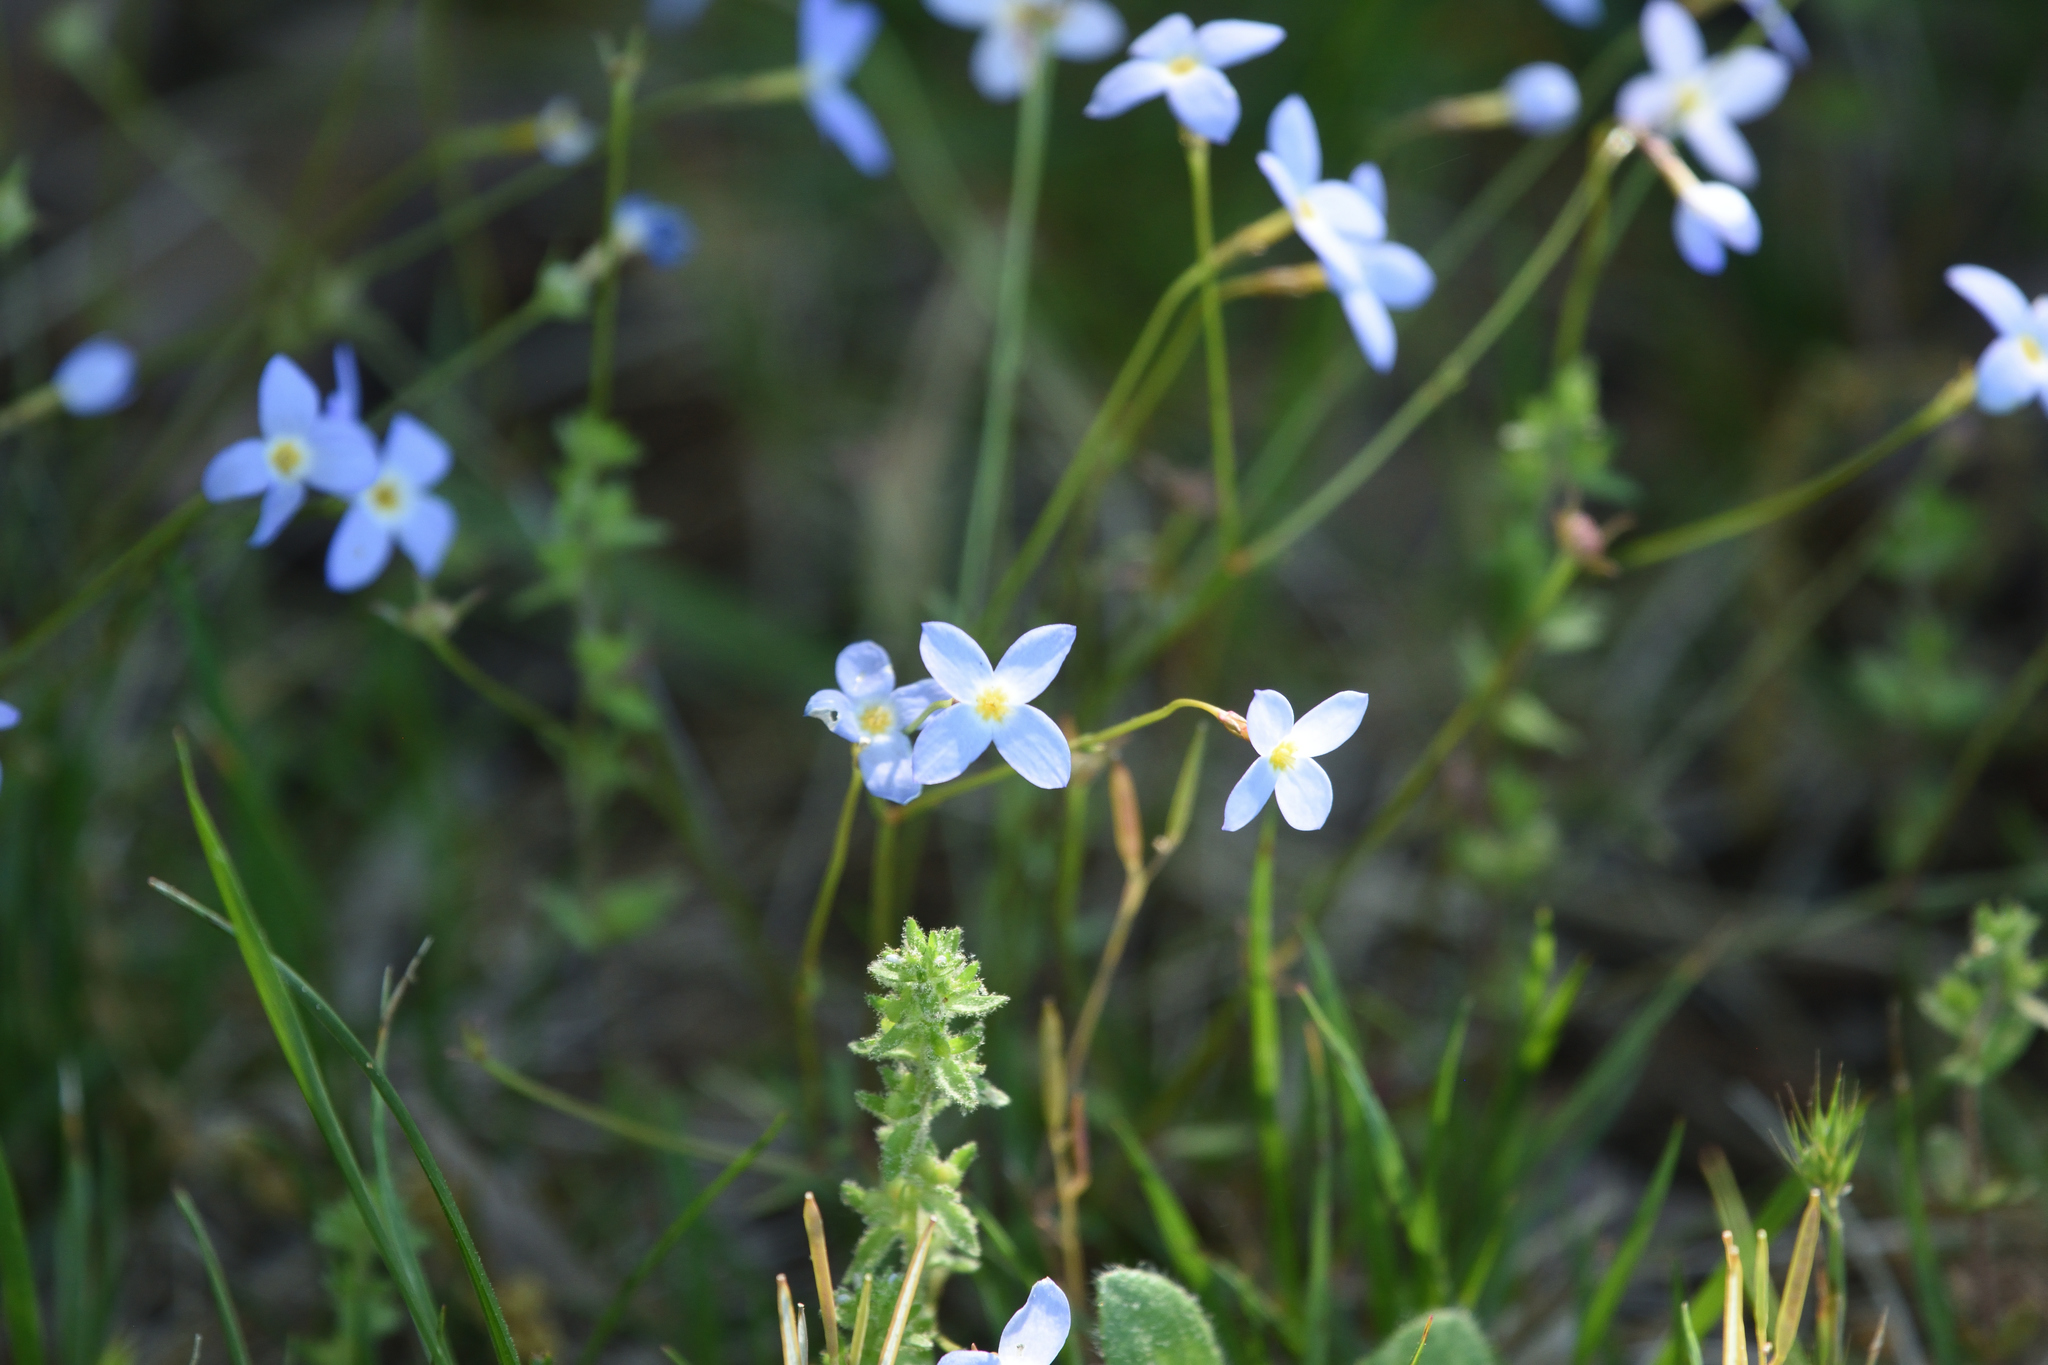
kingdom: Plantae
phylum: Tracheophyta
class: Magnoliopsida
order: Gentianales
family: Rubiaceae
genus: Houstonia
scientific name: Houstonia caerulea
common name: Bluets
